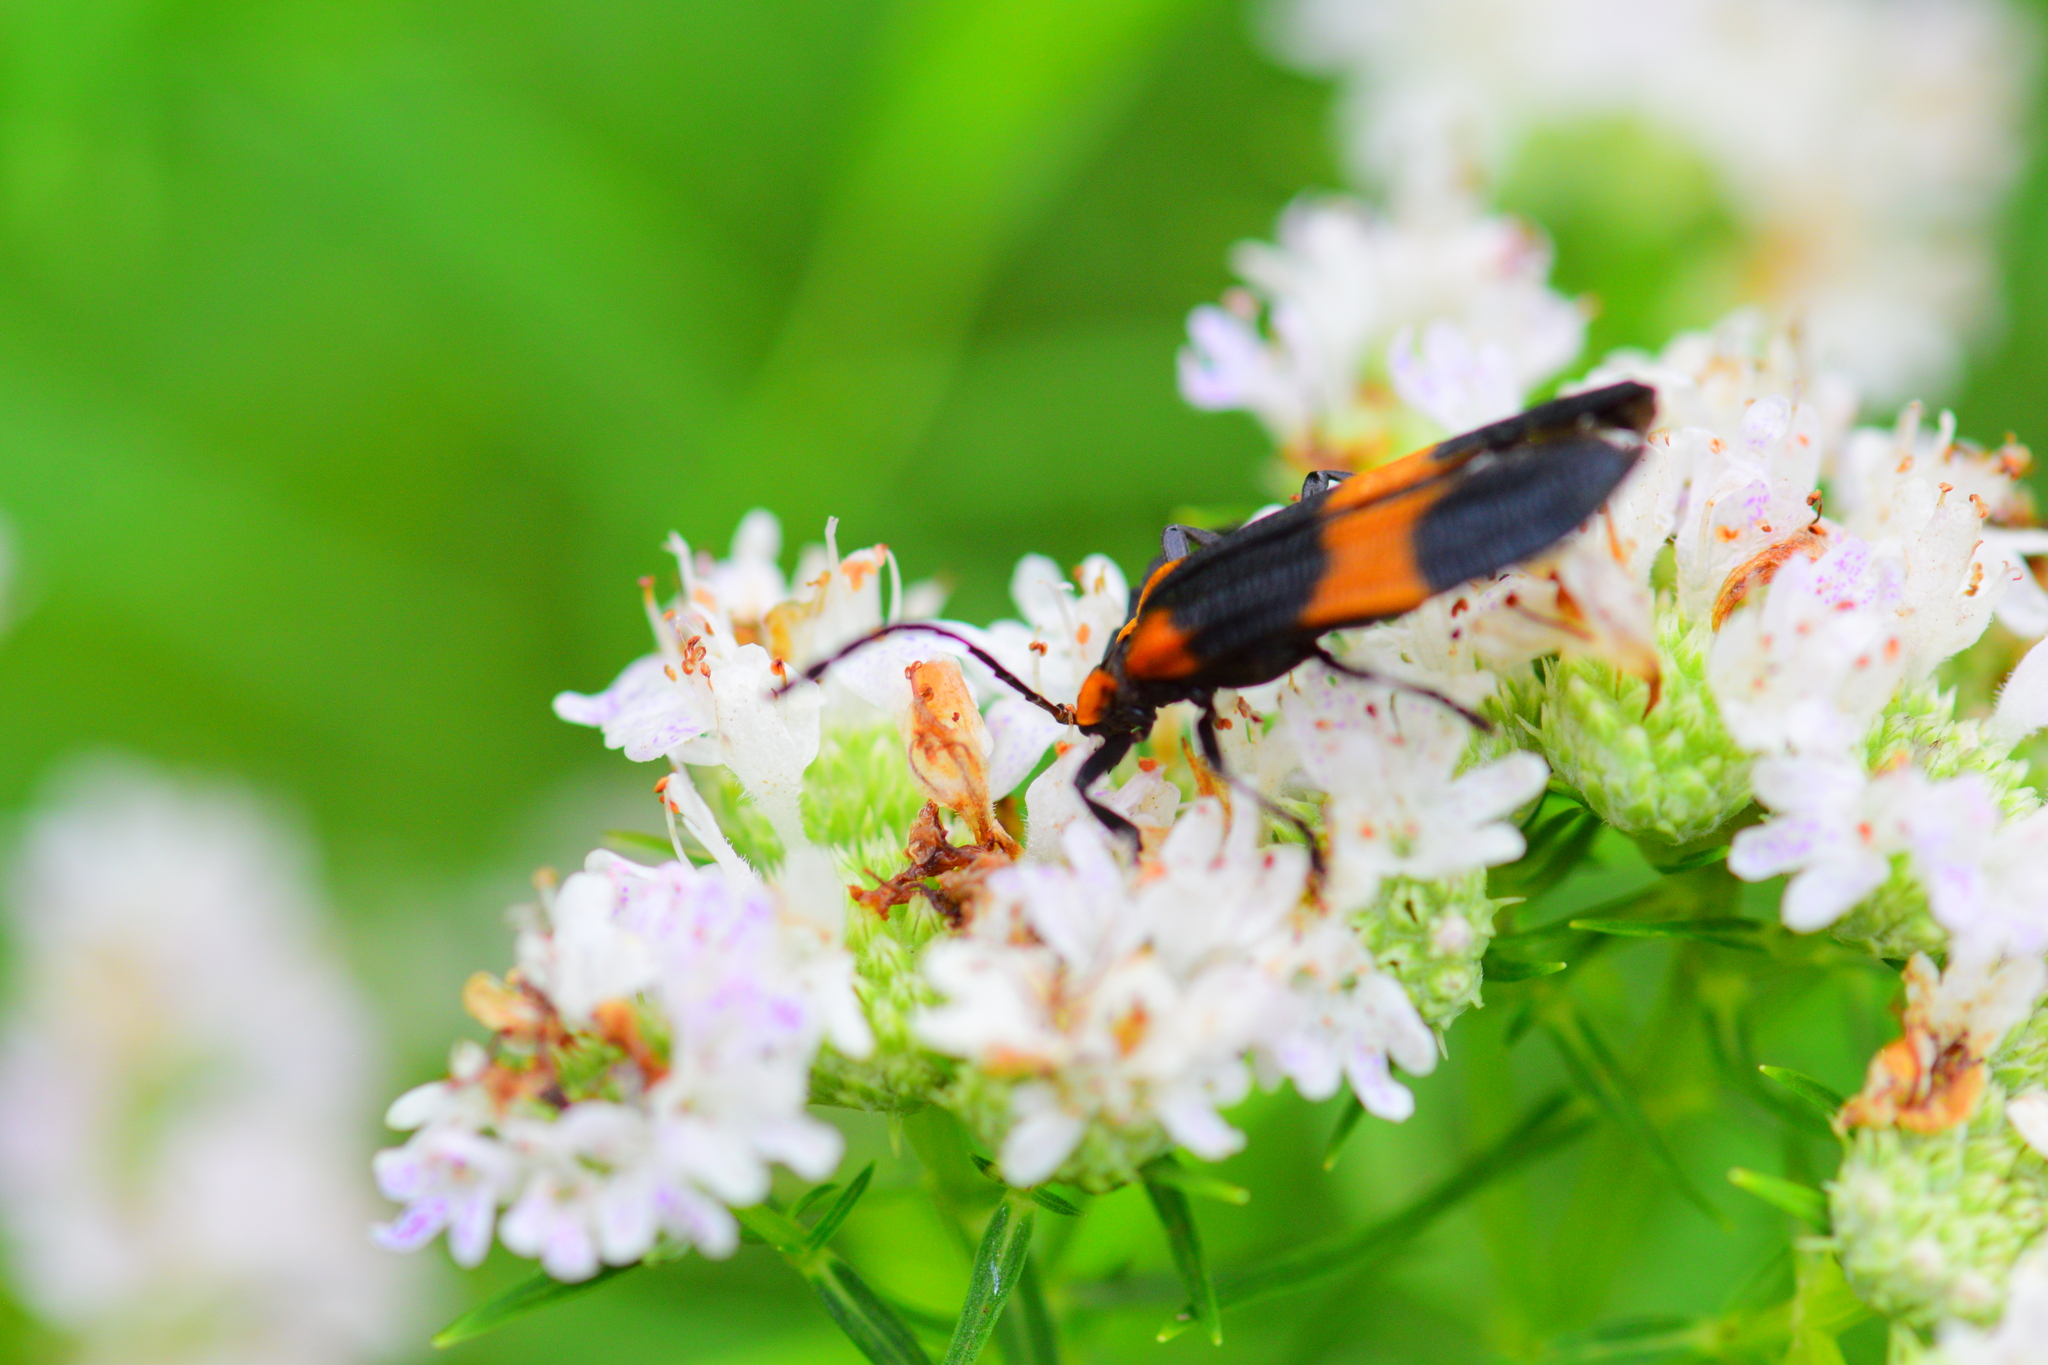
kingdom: Animalia
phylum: Arthropoda
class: Insecta
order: Coleoptera
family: Lycidae
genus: Calopteron
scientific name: Calopteron reticulatum
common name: Banded net-winged beetle
